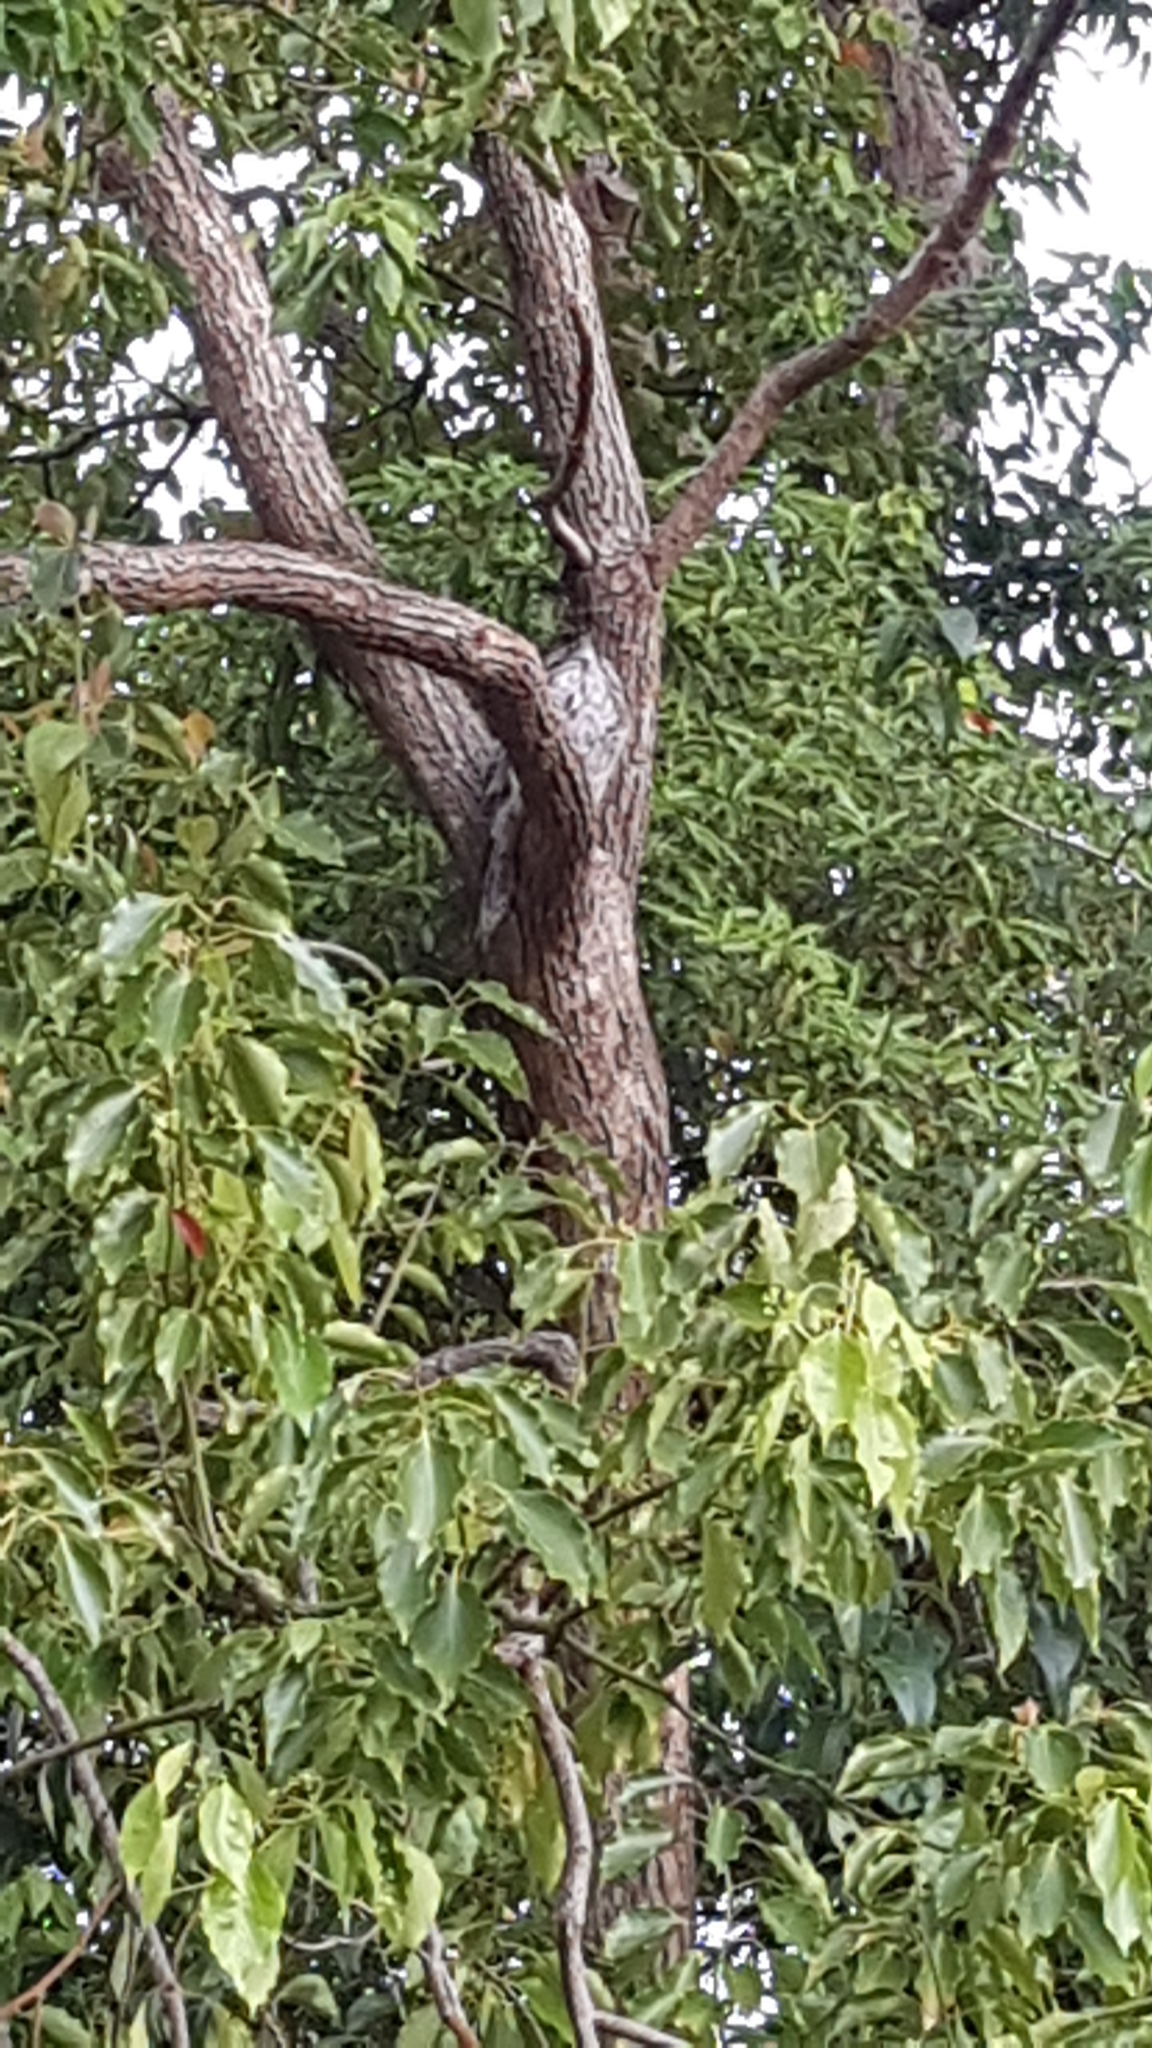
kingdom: Animalia
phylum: Chordata
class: Aves
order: Caprimulgiformes
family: Podargidae
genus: Podargus
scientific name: Podargus strigoides
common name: Tawny frogmouth
